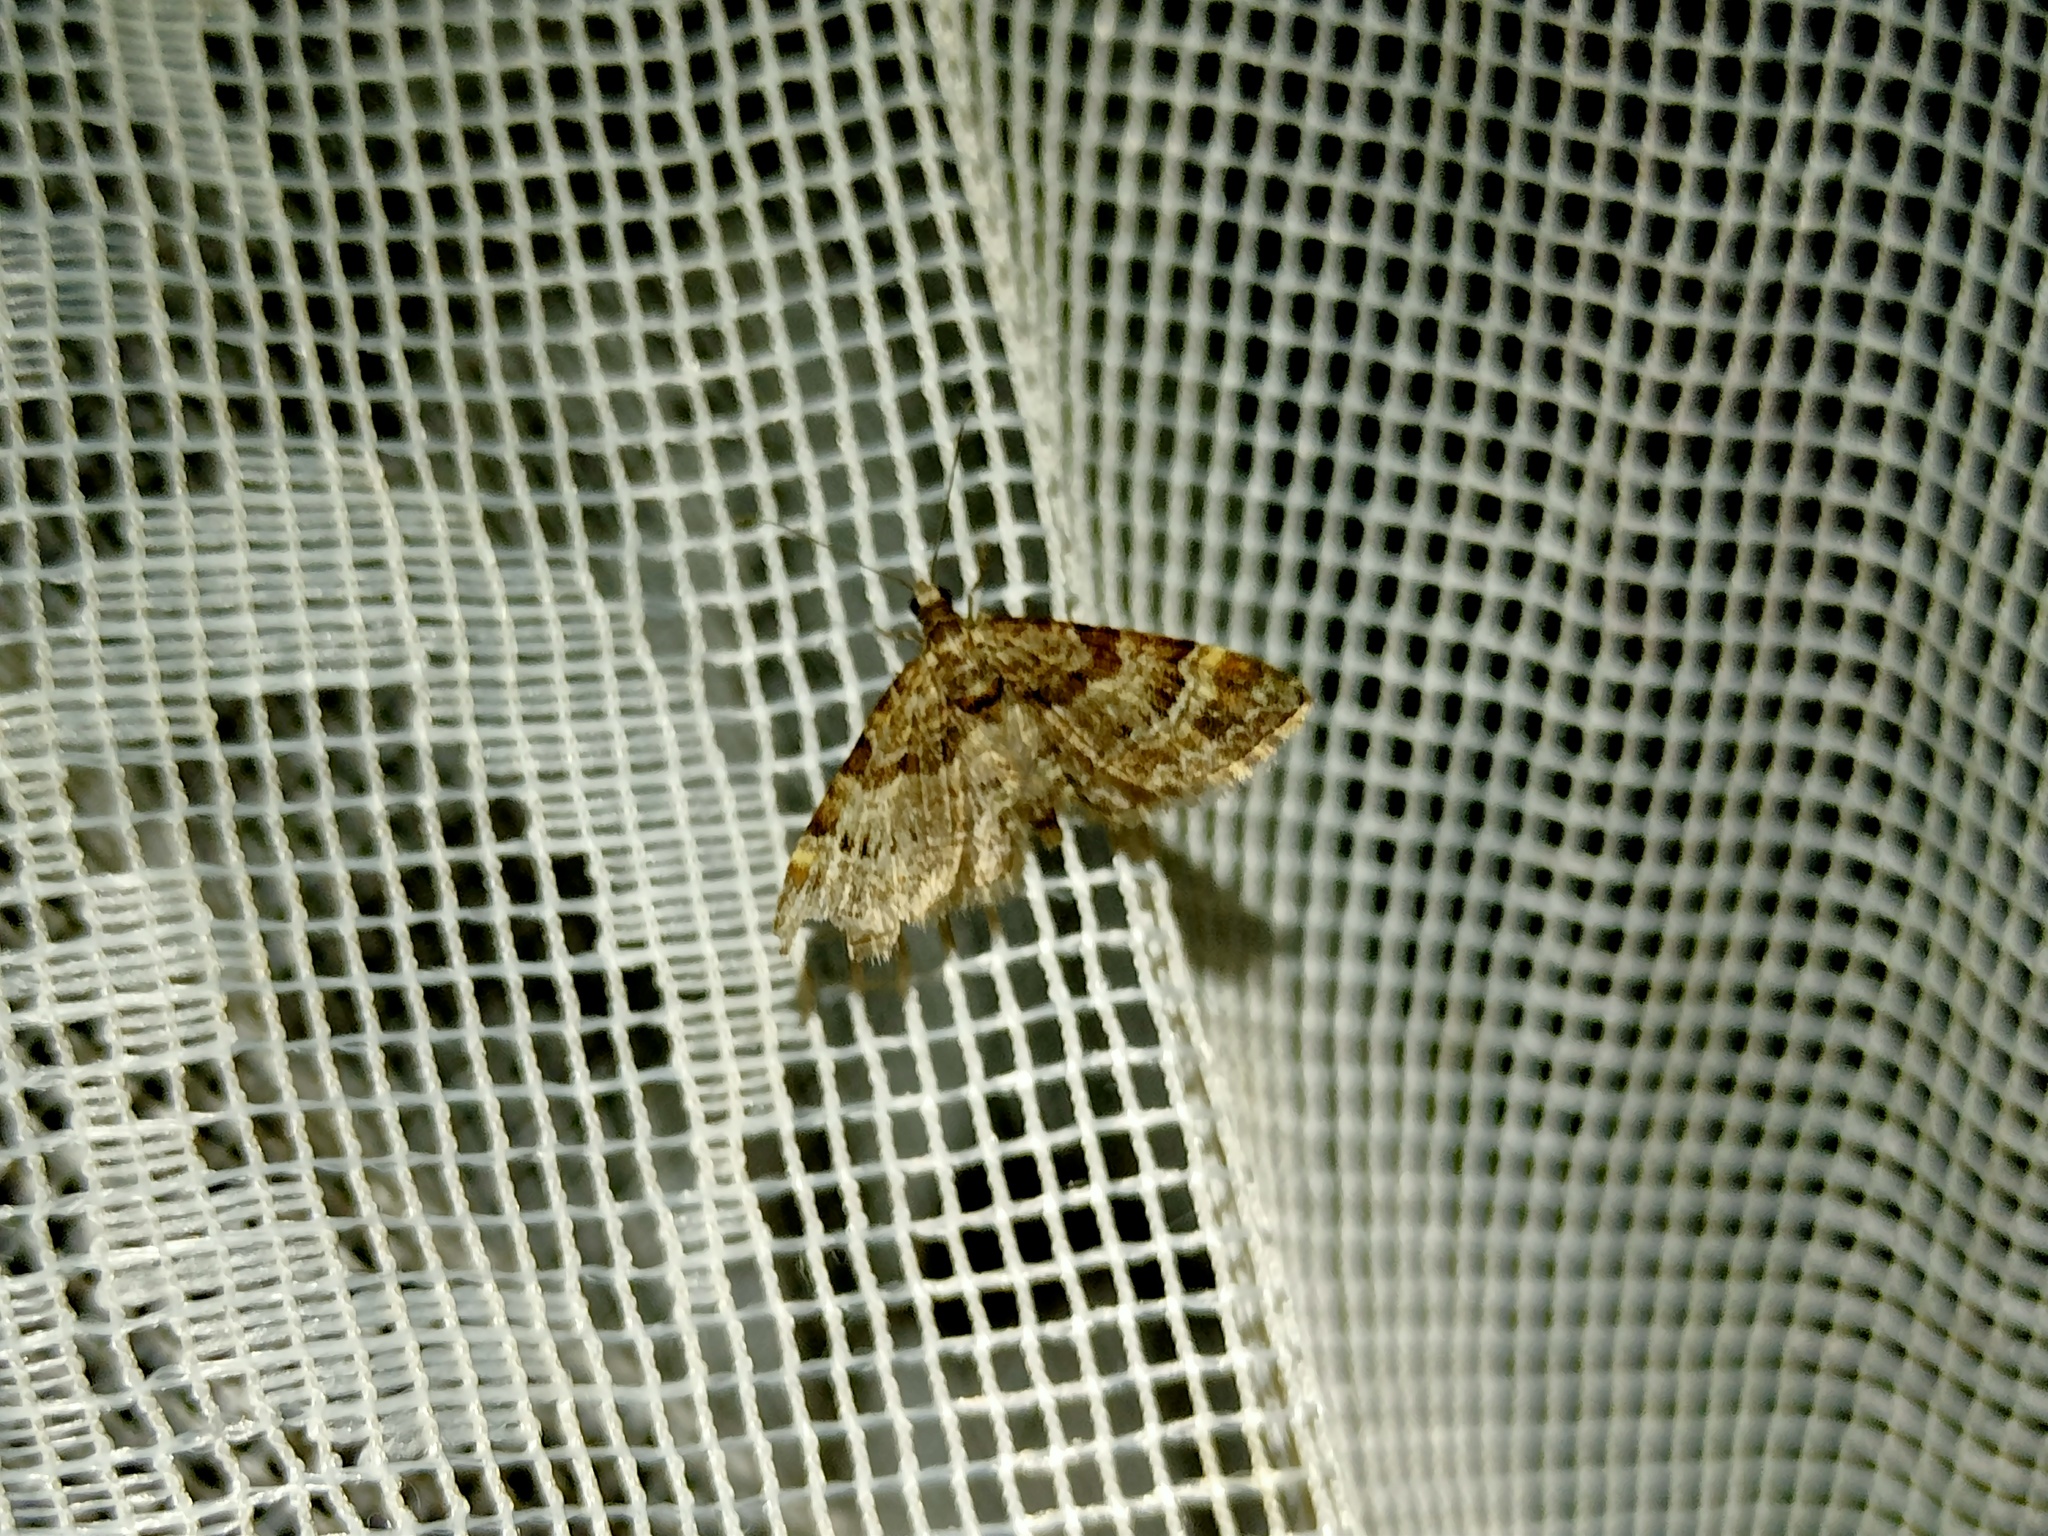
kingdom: Animalia
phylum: Arthropoda
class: Insecta
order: Lepidoptera
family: Geometridae
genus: Gymnoscelis
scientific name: Gymnoscelis rufifasciata
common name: Double-striped pug
